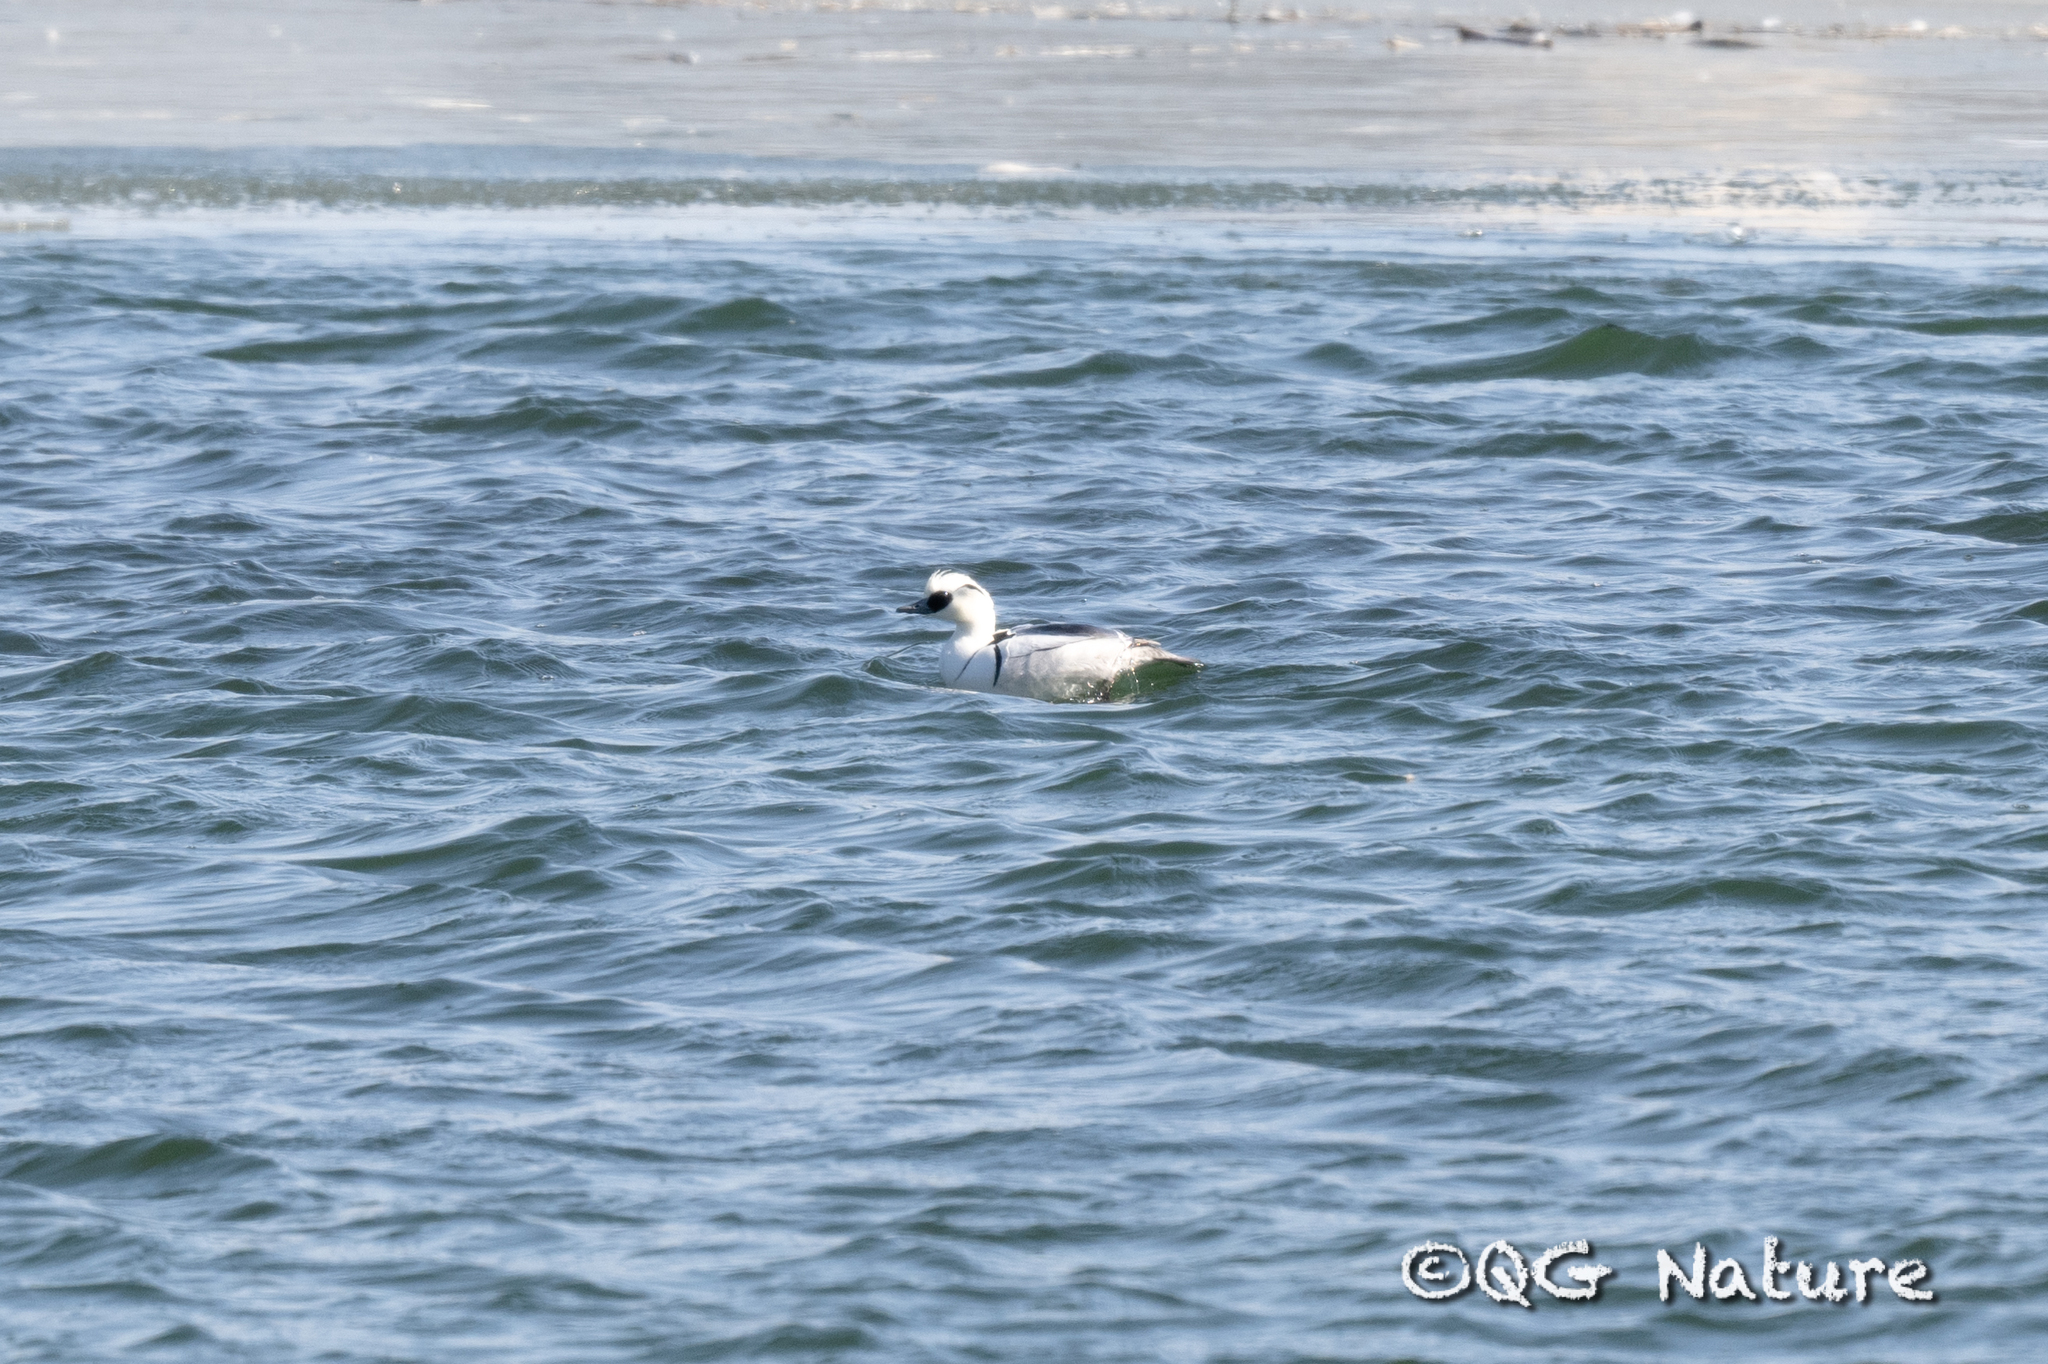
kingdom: Animalia
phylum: Chordata
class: Aves
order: Anseriformes
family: Anatidae
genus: Mergellus
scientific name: Mergellus albellus
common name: Smew
